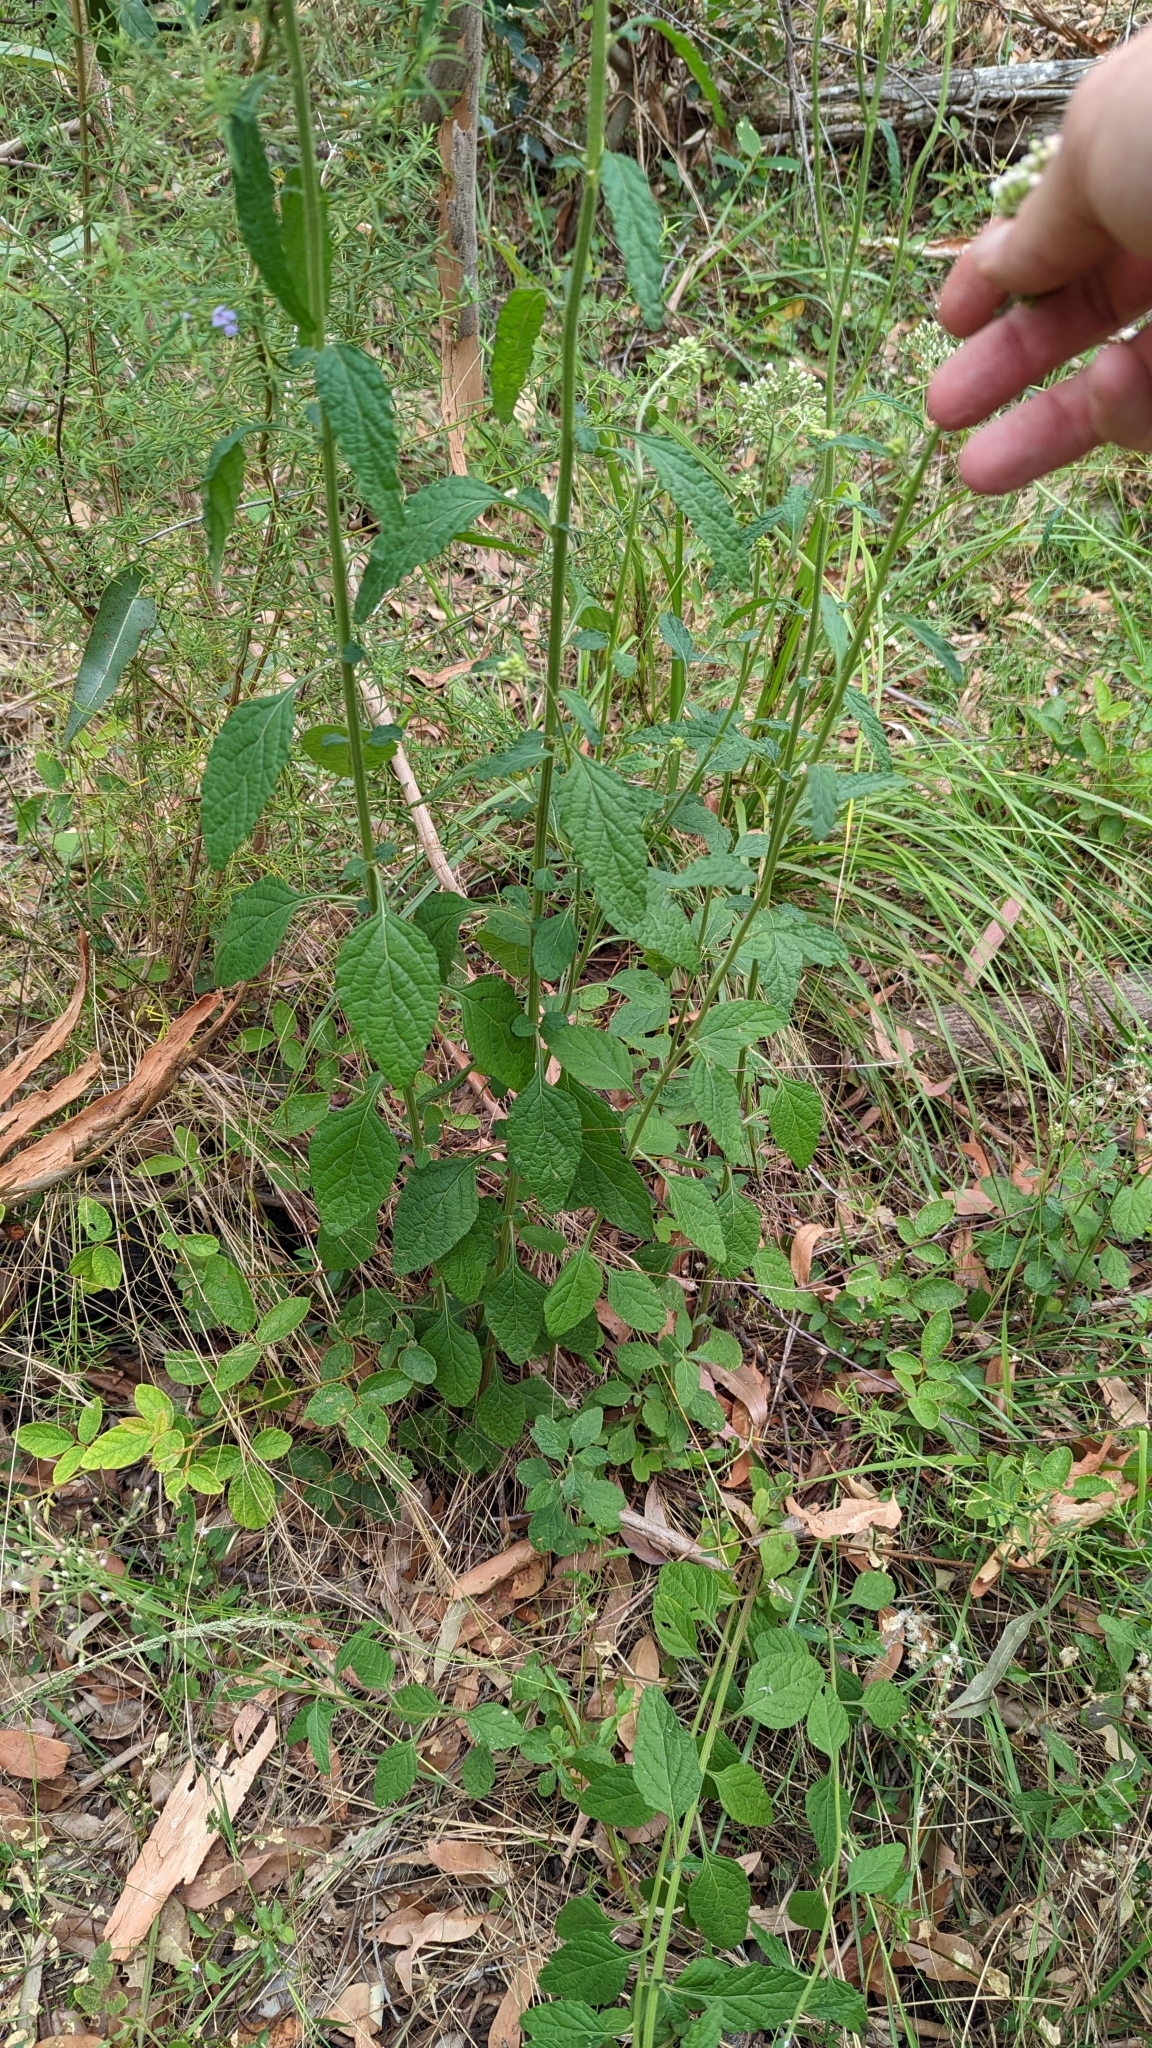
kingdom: Plantae
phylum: Tracheophyta
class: Magnoliopsida
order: Asterales
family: Asteraceae
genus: Cyanthillium
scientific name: Cyanthillium cinereum
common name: Little ironweed
